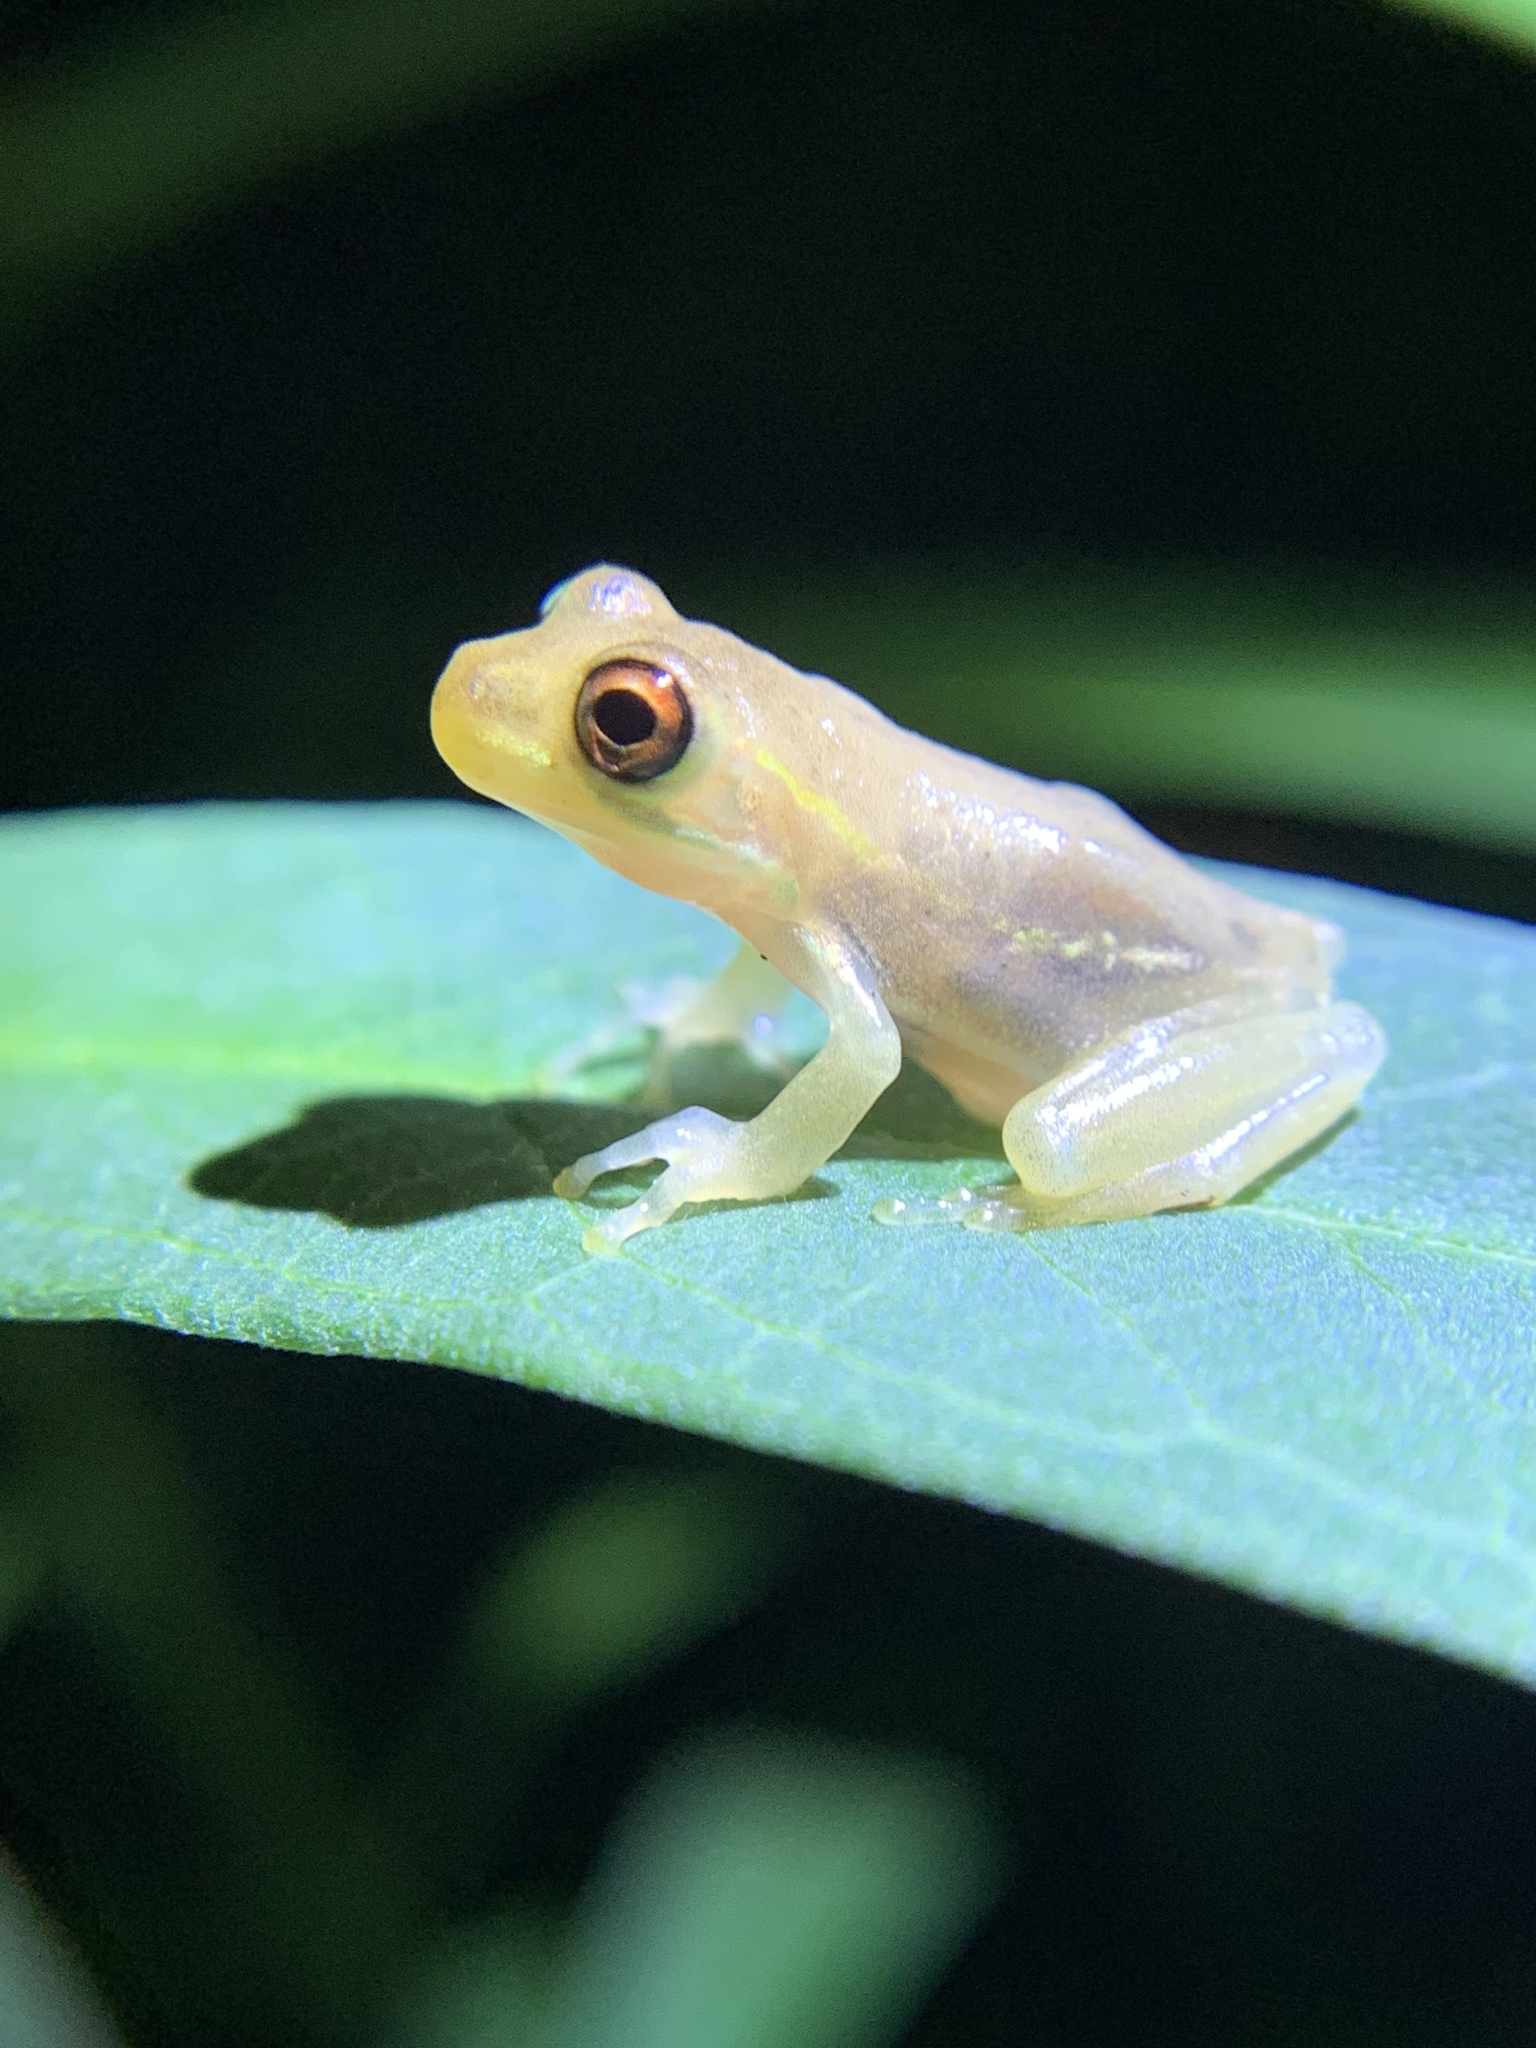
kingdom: Animalia
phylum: Chordata
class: Amphibia
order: Anura
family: Hylidae
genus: Osteopilus
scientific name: Osteopilus septentrionalis
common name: Cuban treefrog
